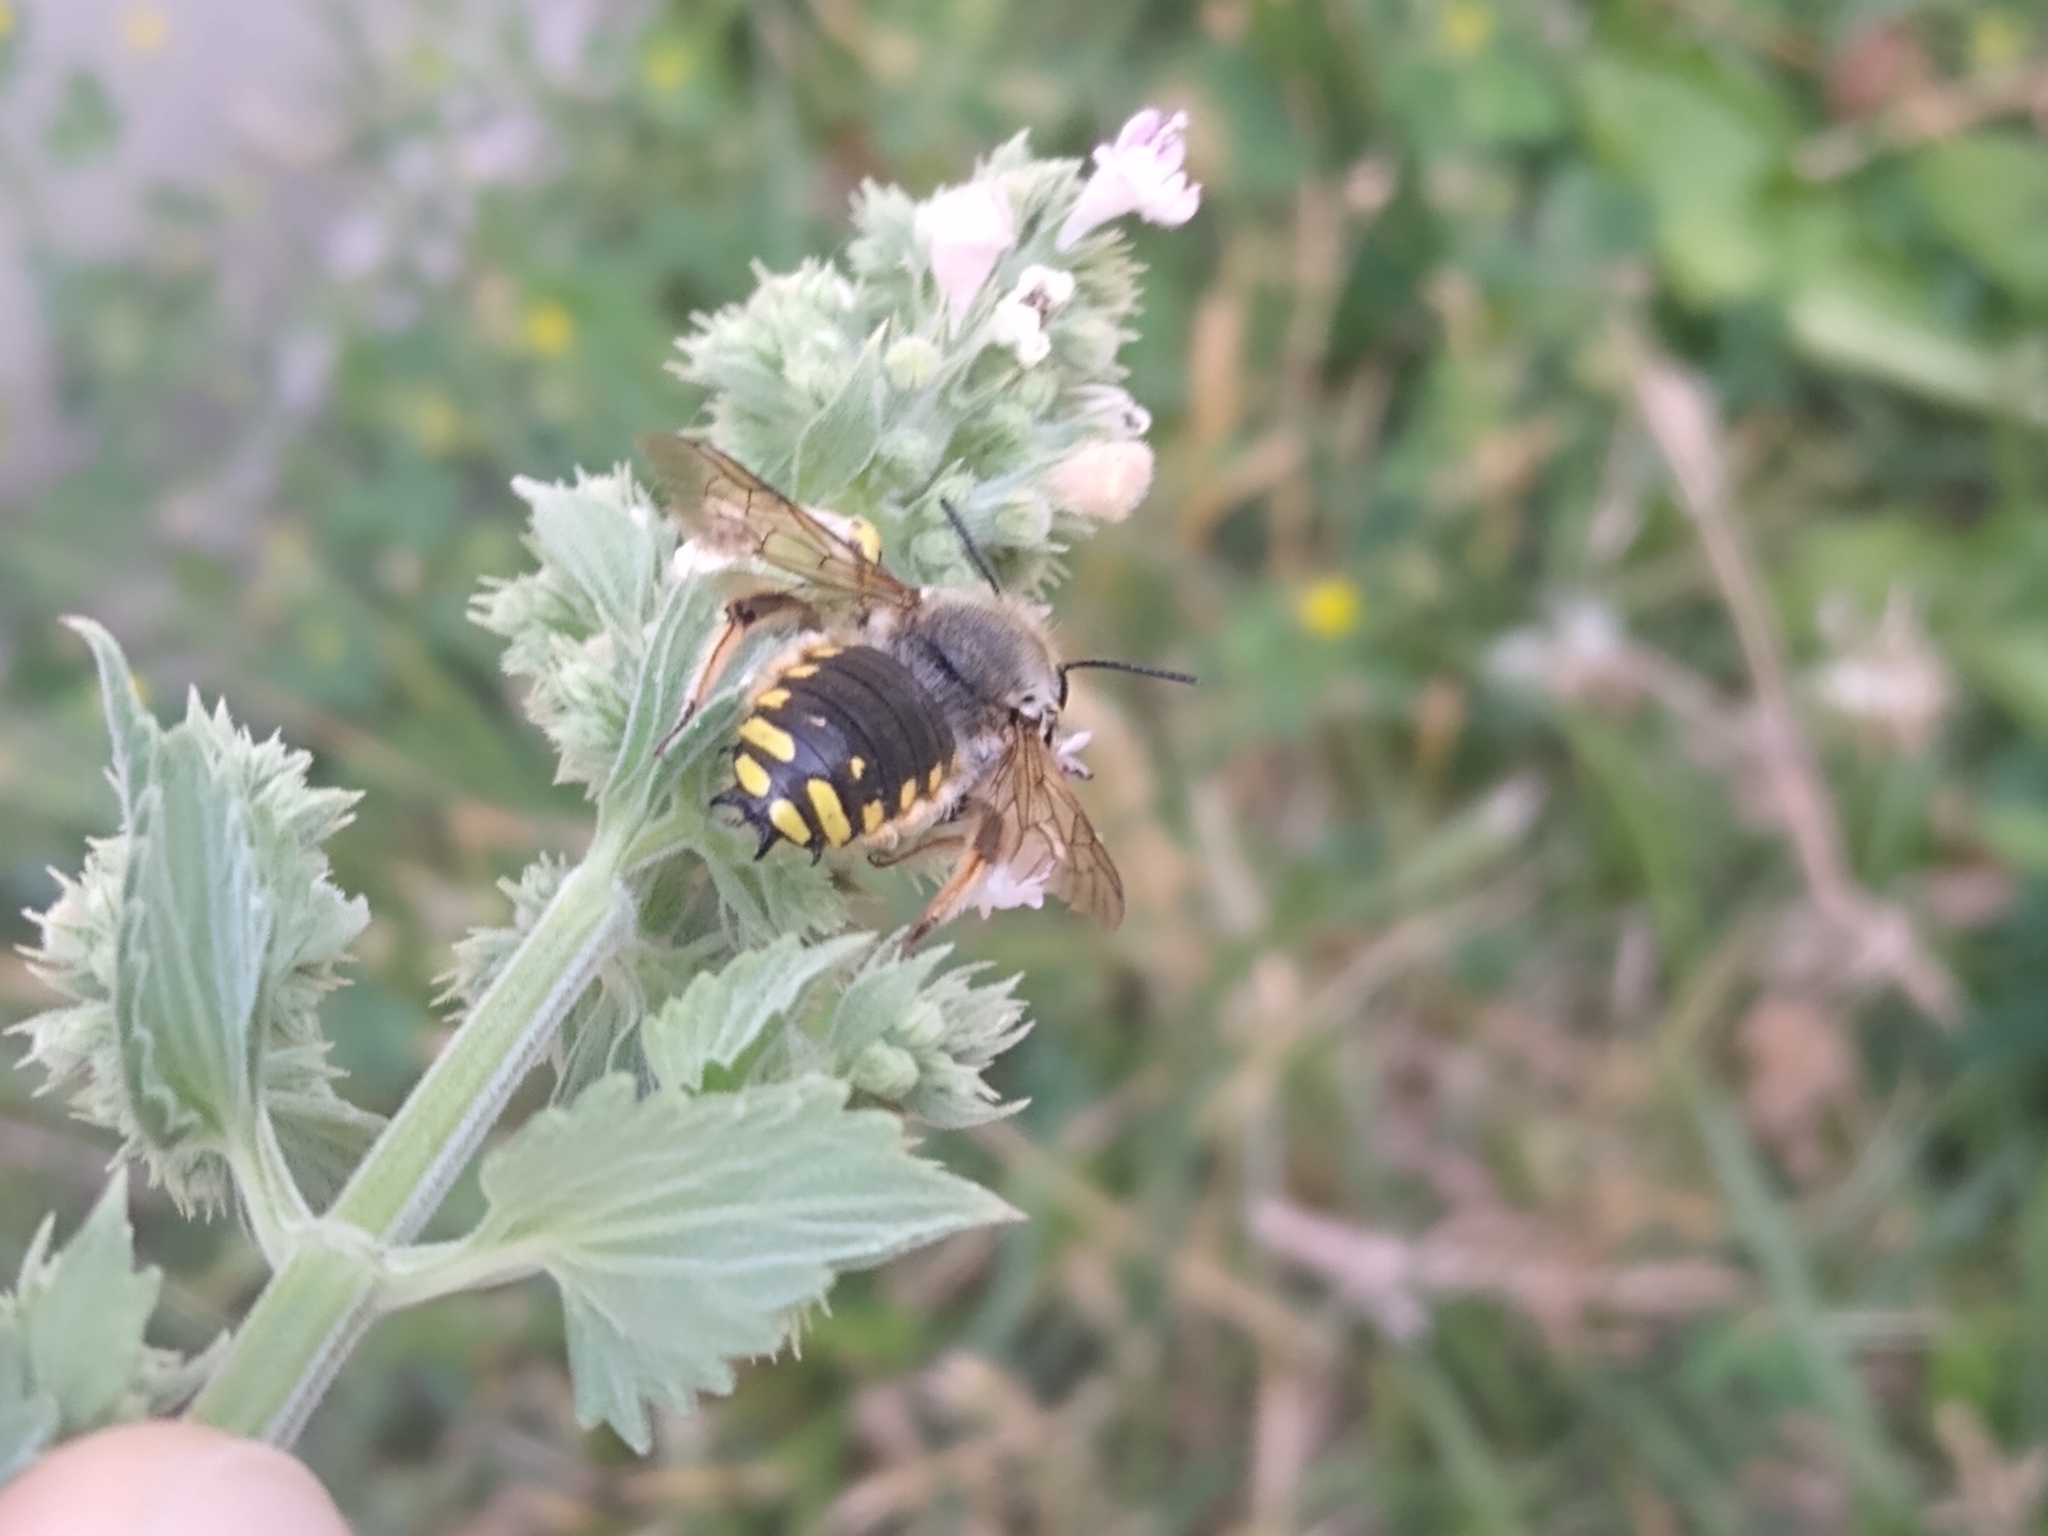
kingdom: Animalia
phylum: Arthropoda
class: Insecta
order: Hymenoptera
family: Megachilidae
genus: Anthidium
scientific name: Anthidium manicatum
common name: Wool carder bee
